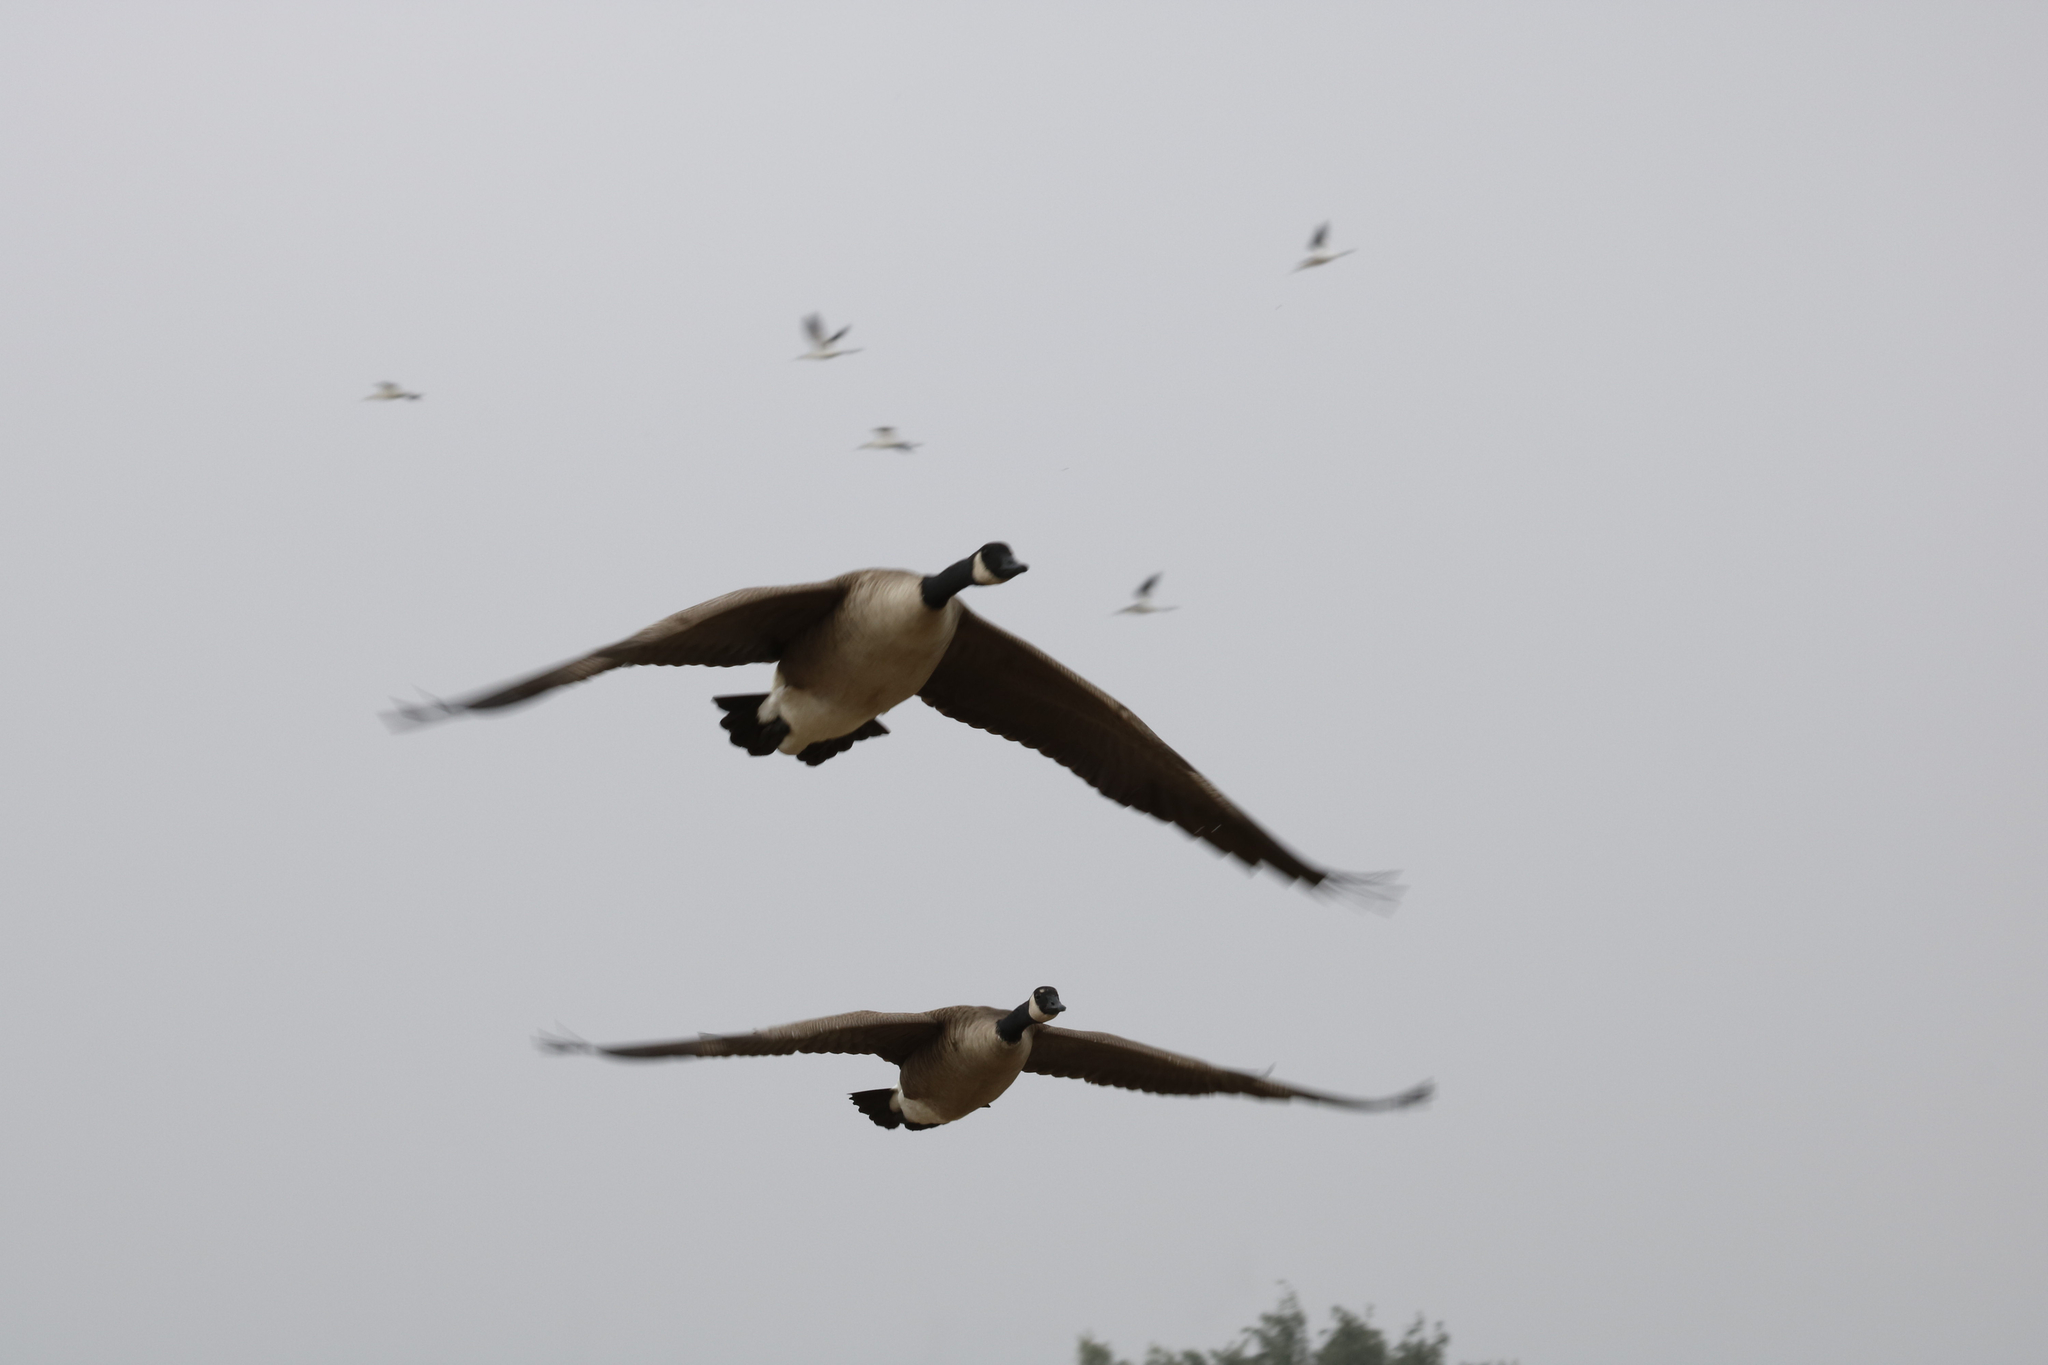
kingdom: Animalia
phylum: Chordata
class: Aves
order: Anseriformes
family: Anatidae
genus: Branta
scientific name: Branta canadensis
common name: Canada goose
